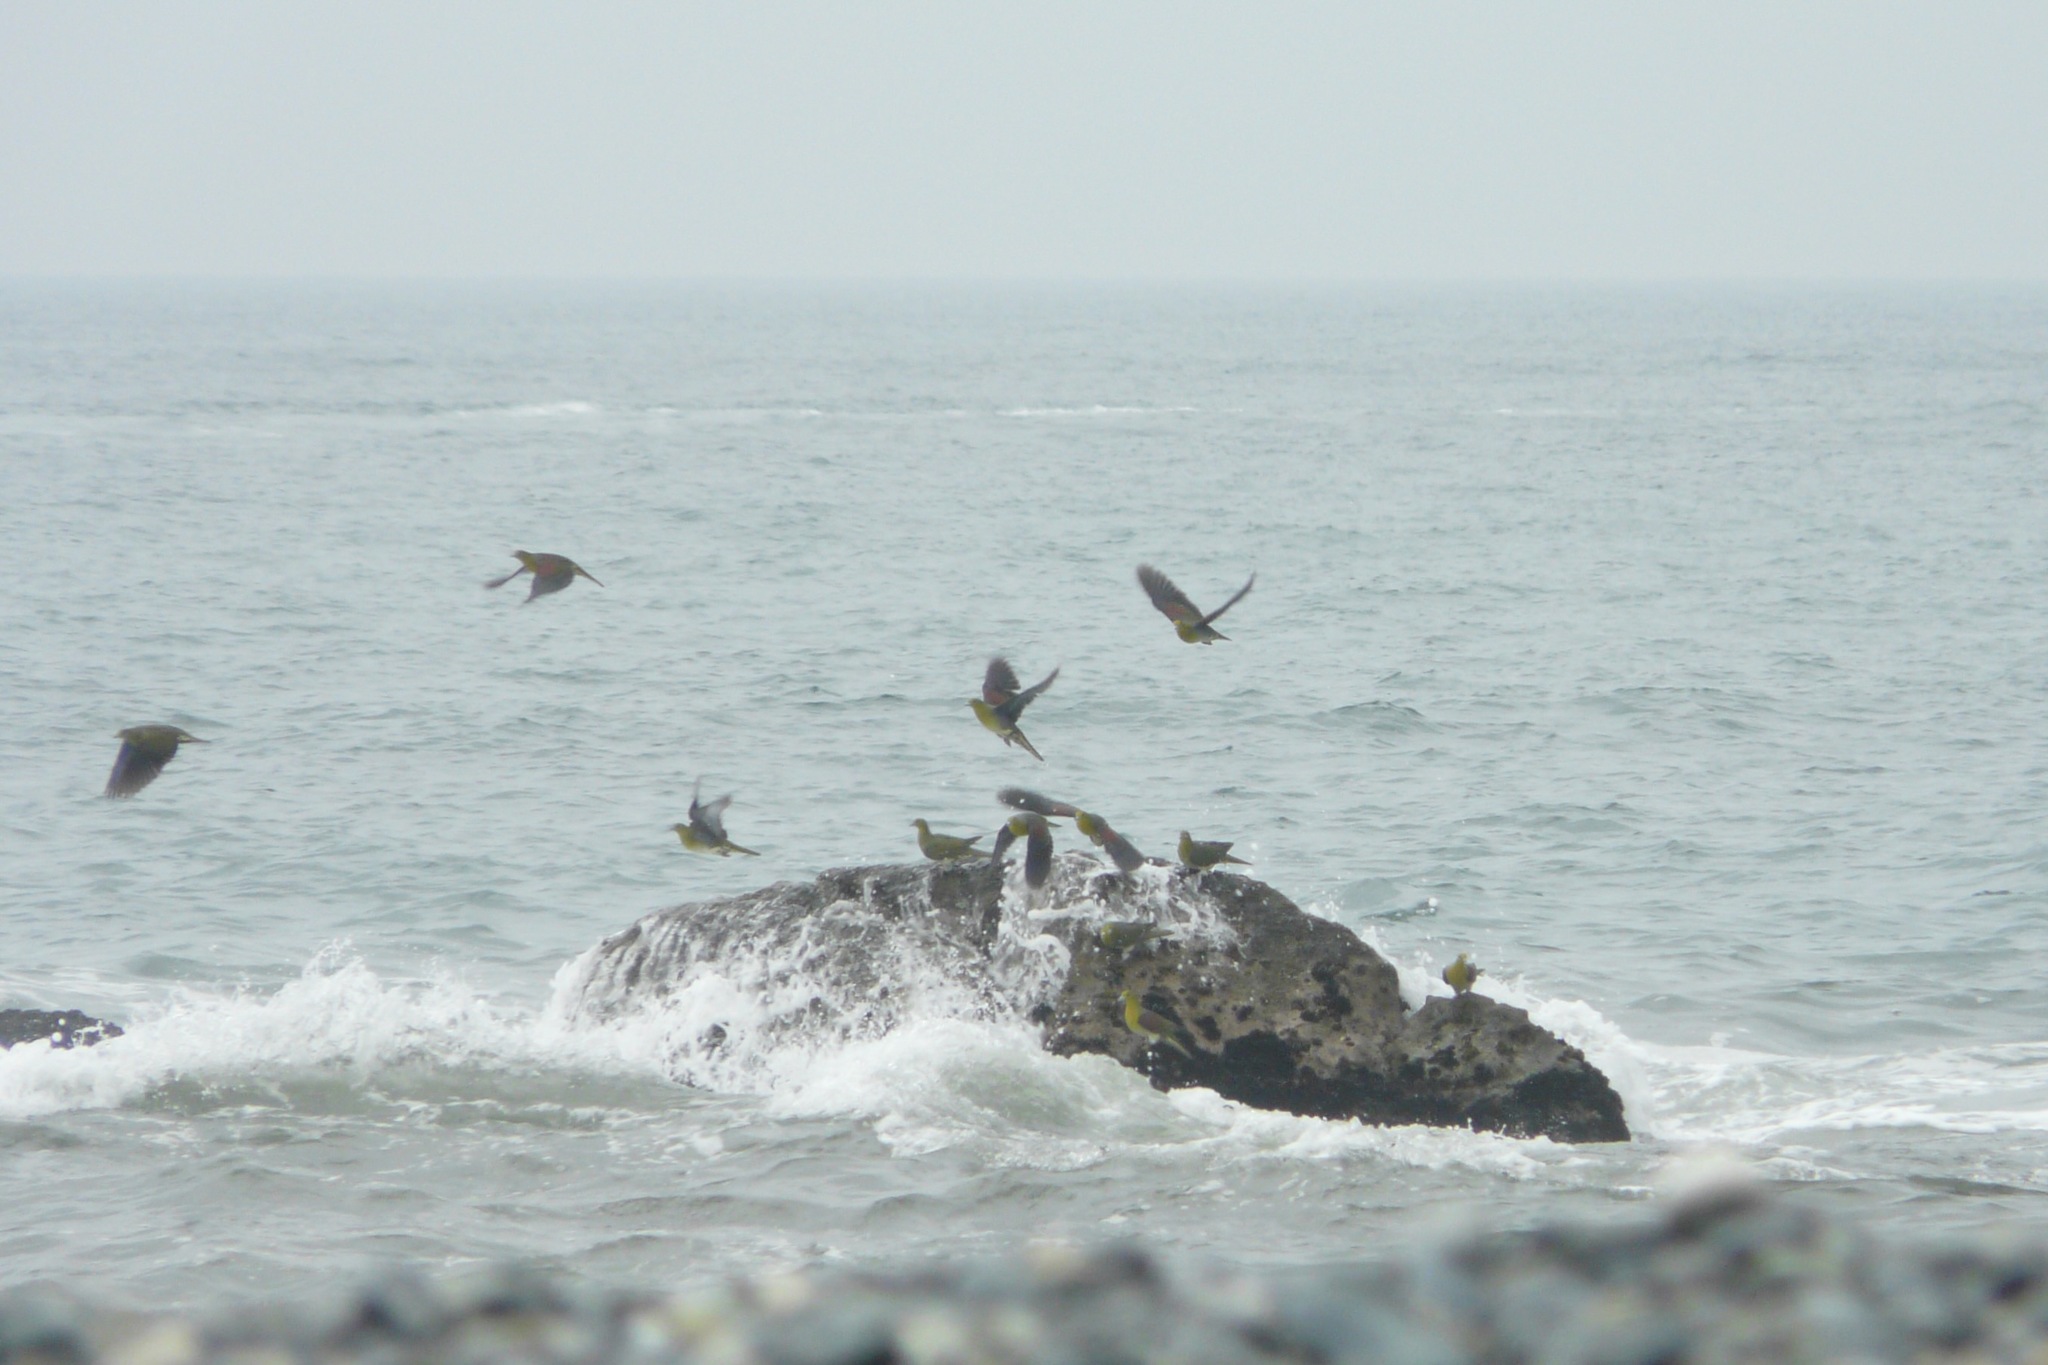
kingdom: Animalia
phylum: Chordata
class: Aves
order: Columbiformes
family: Columbidae
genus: Treron
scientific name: Treron sieboldii
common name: White-bellied green pigeon
